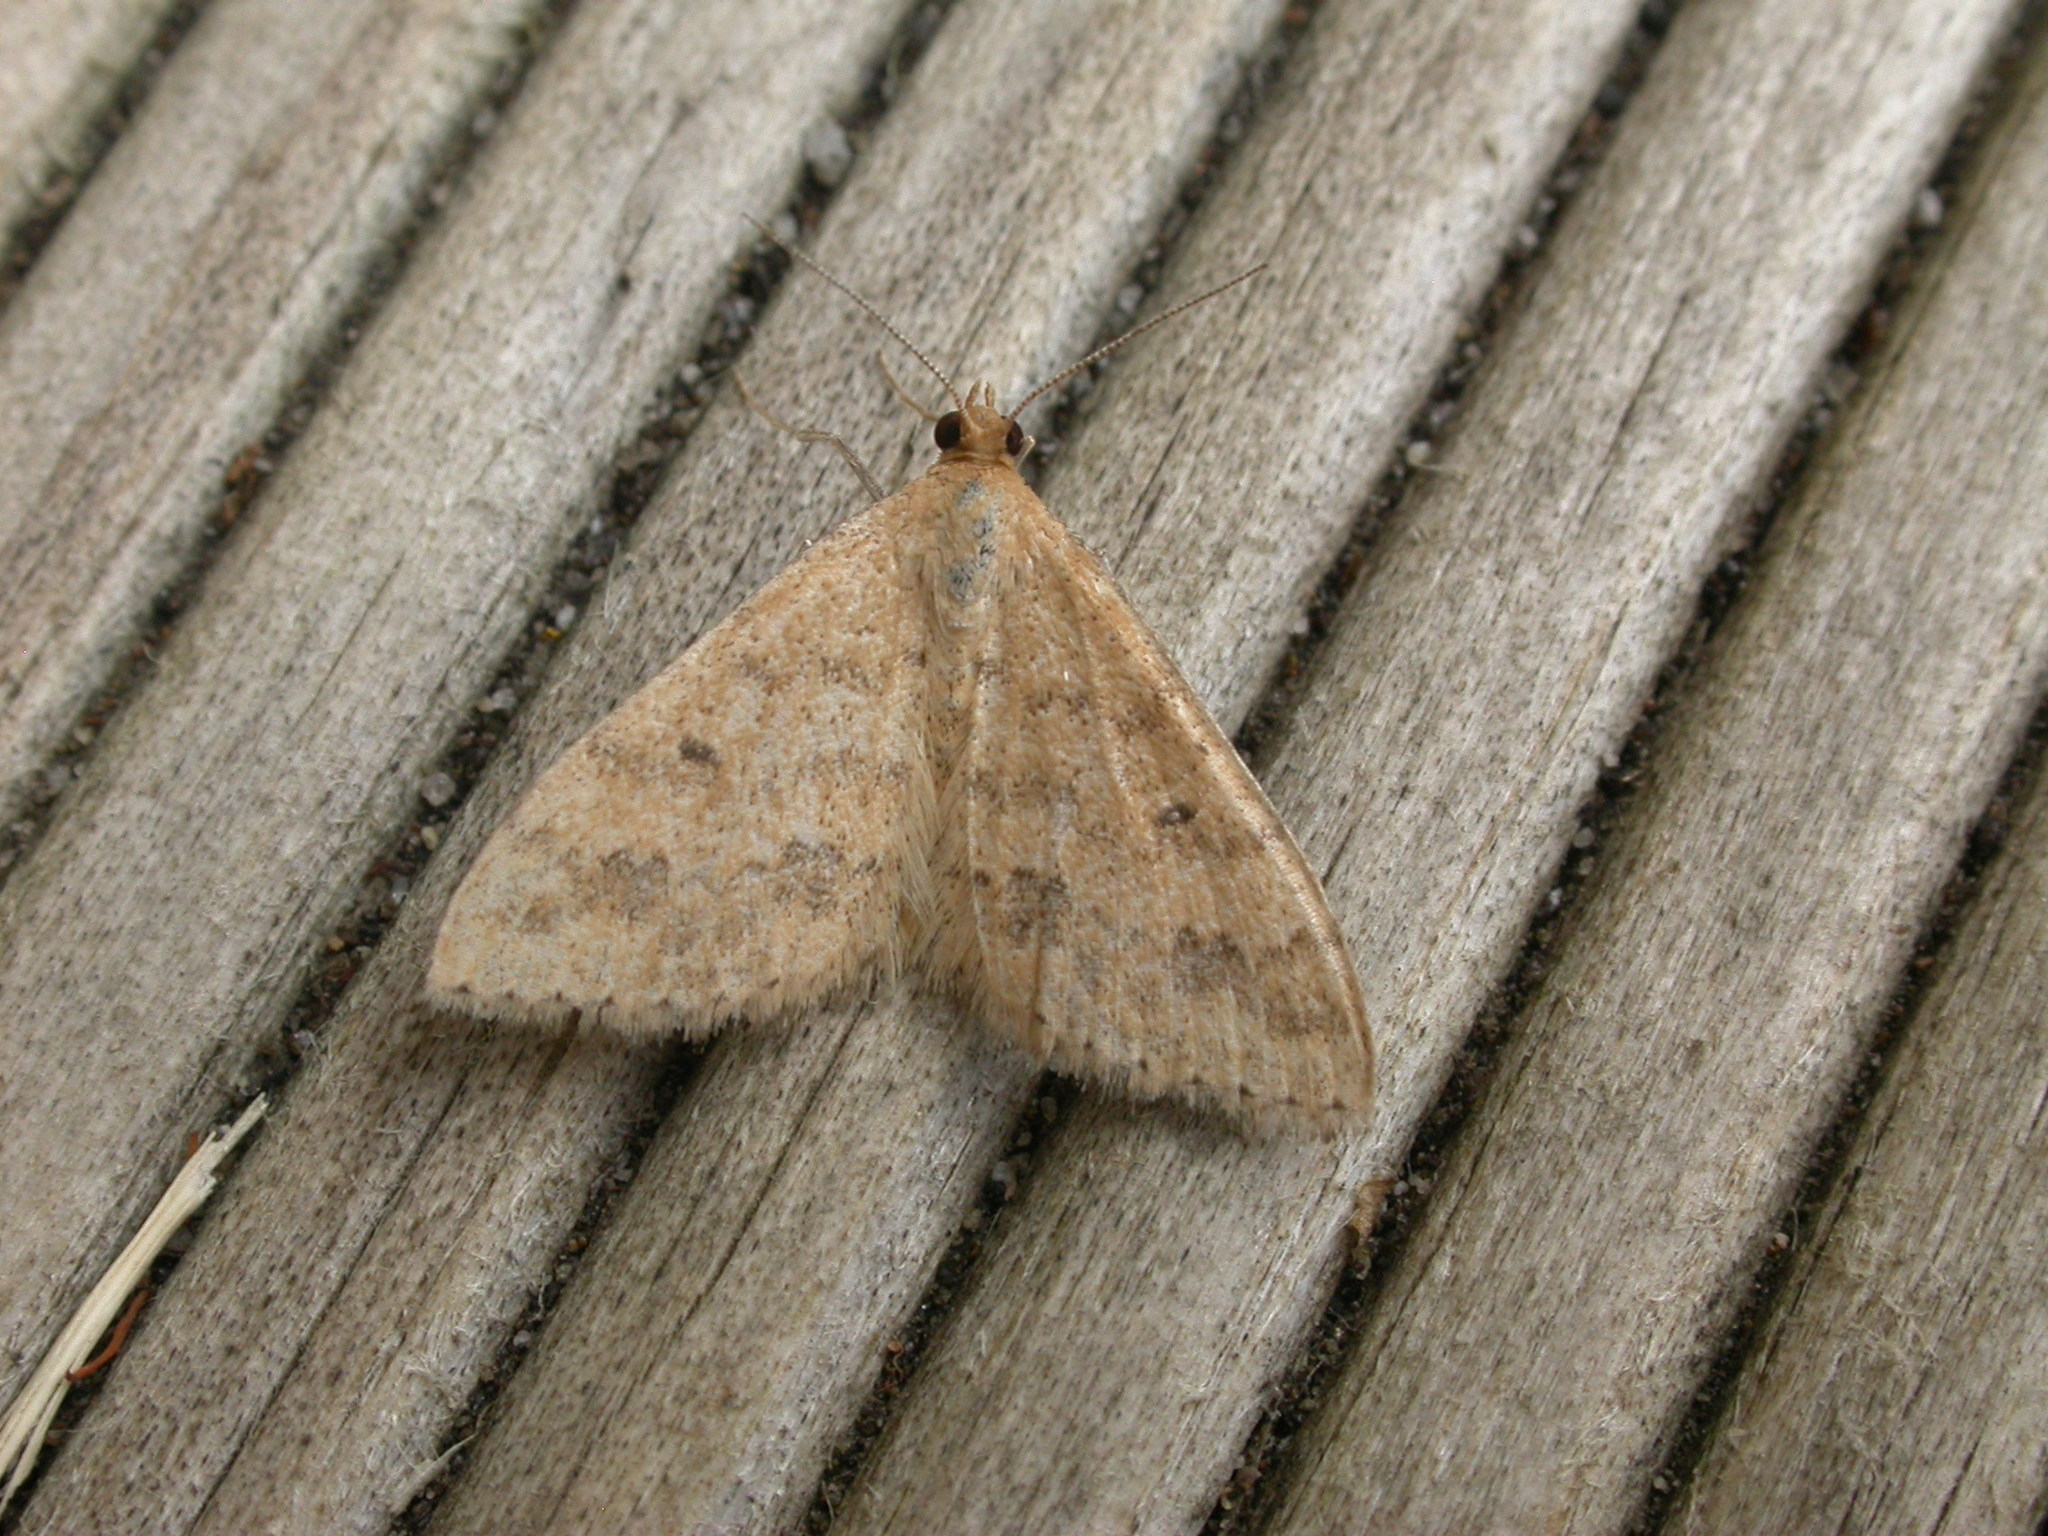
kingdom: Animalia
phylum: Arthropoda
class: Insecta
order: Lepidoptera
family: Geometridae
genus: Scopula
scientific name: Scopula rubraria
